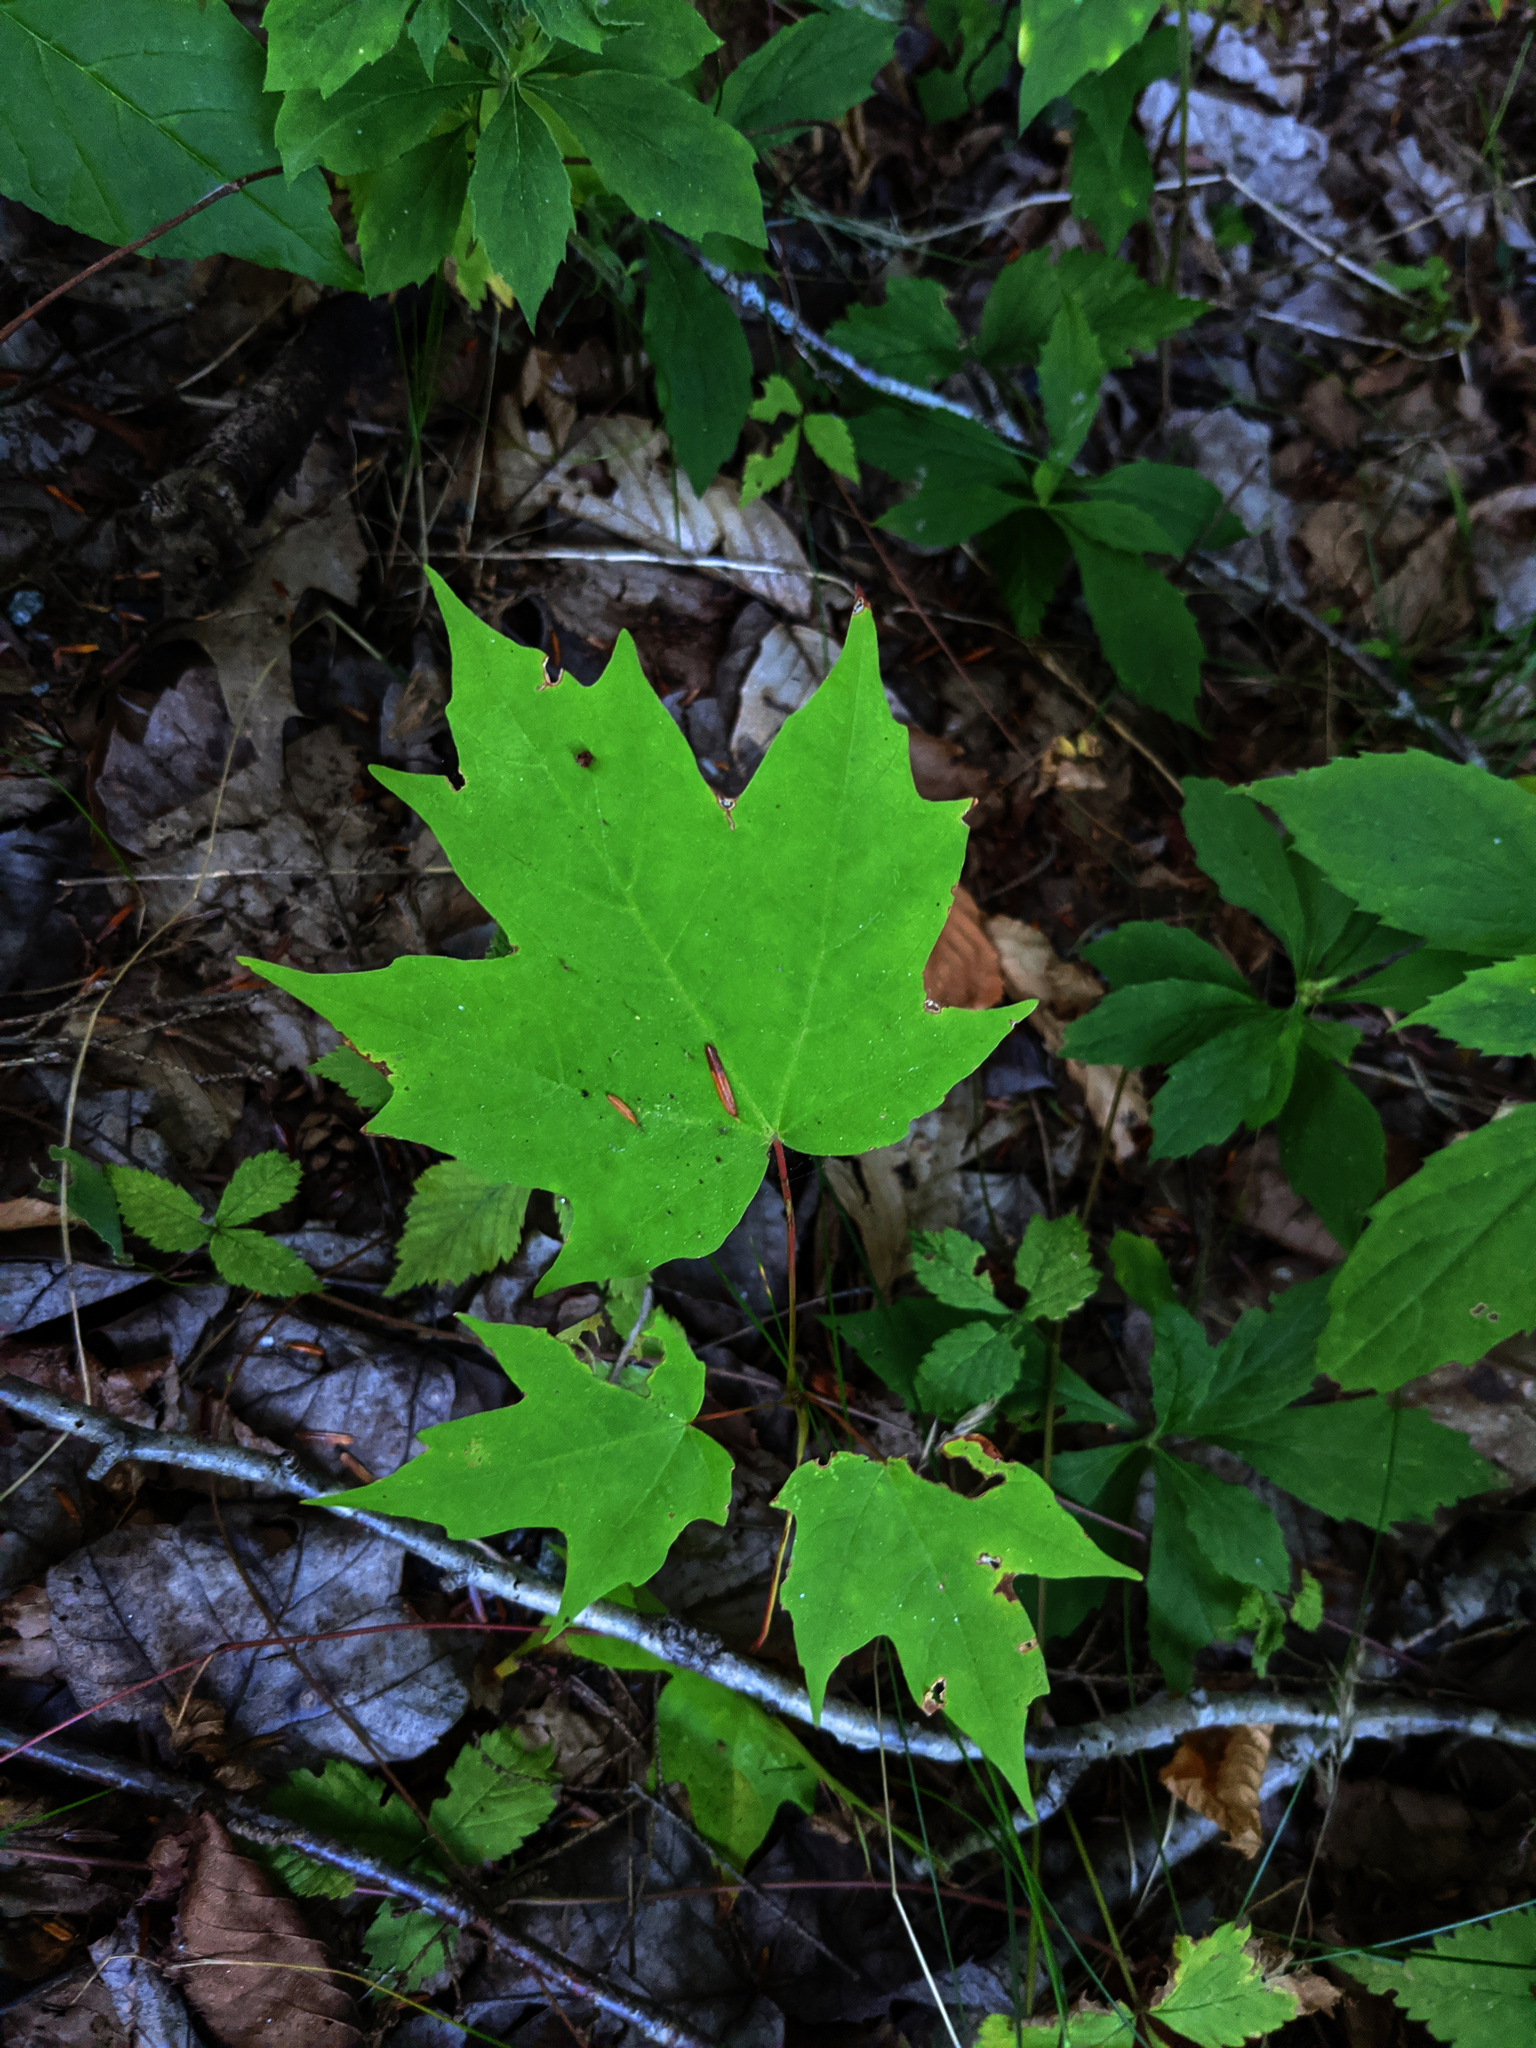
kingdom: Plantae
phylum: Tracheophyta
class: Magnoliopsida
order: Sapindales
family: Sapindaceae
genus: Acer
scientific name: Acer saccharum
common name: Sugar maple
